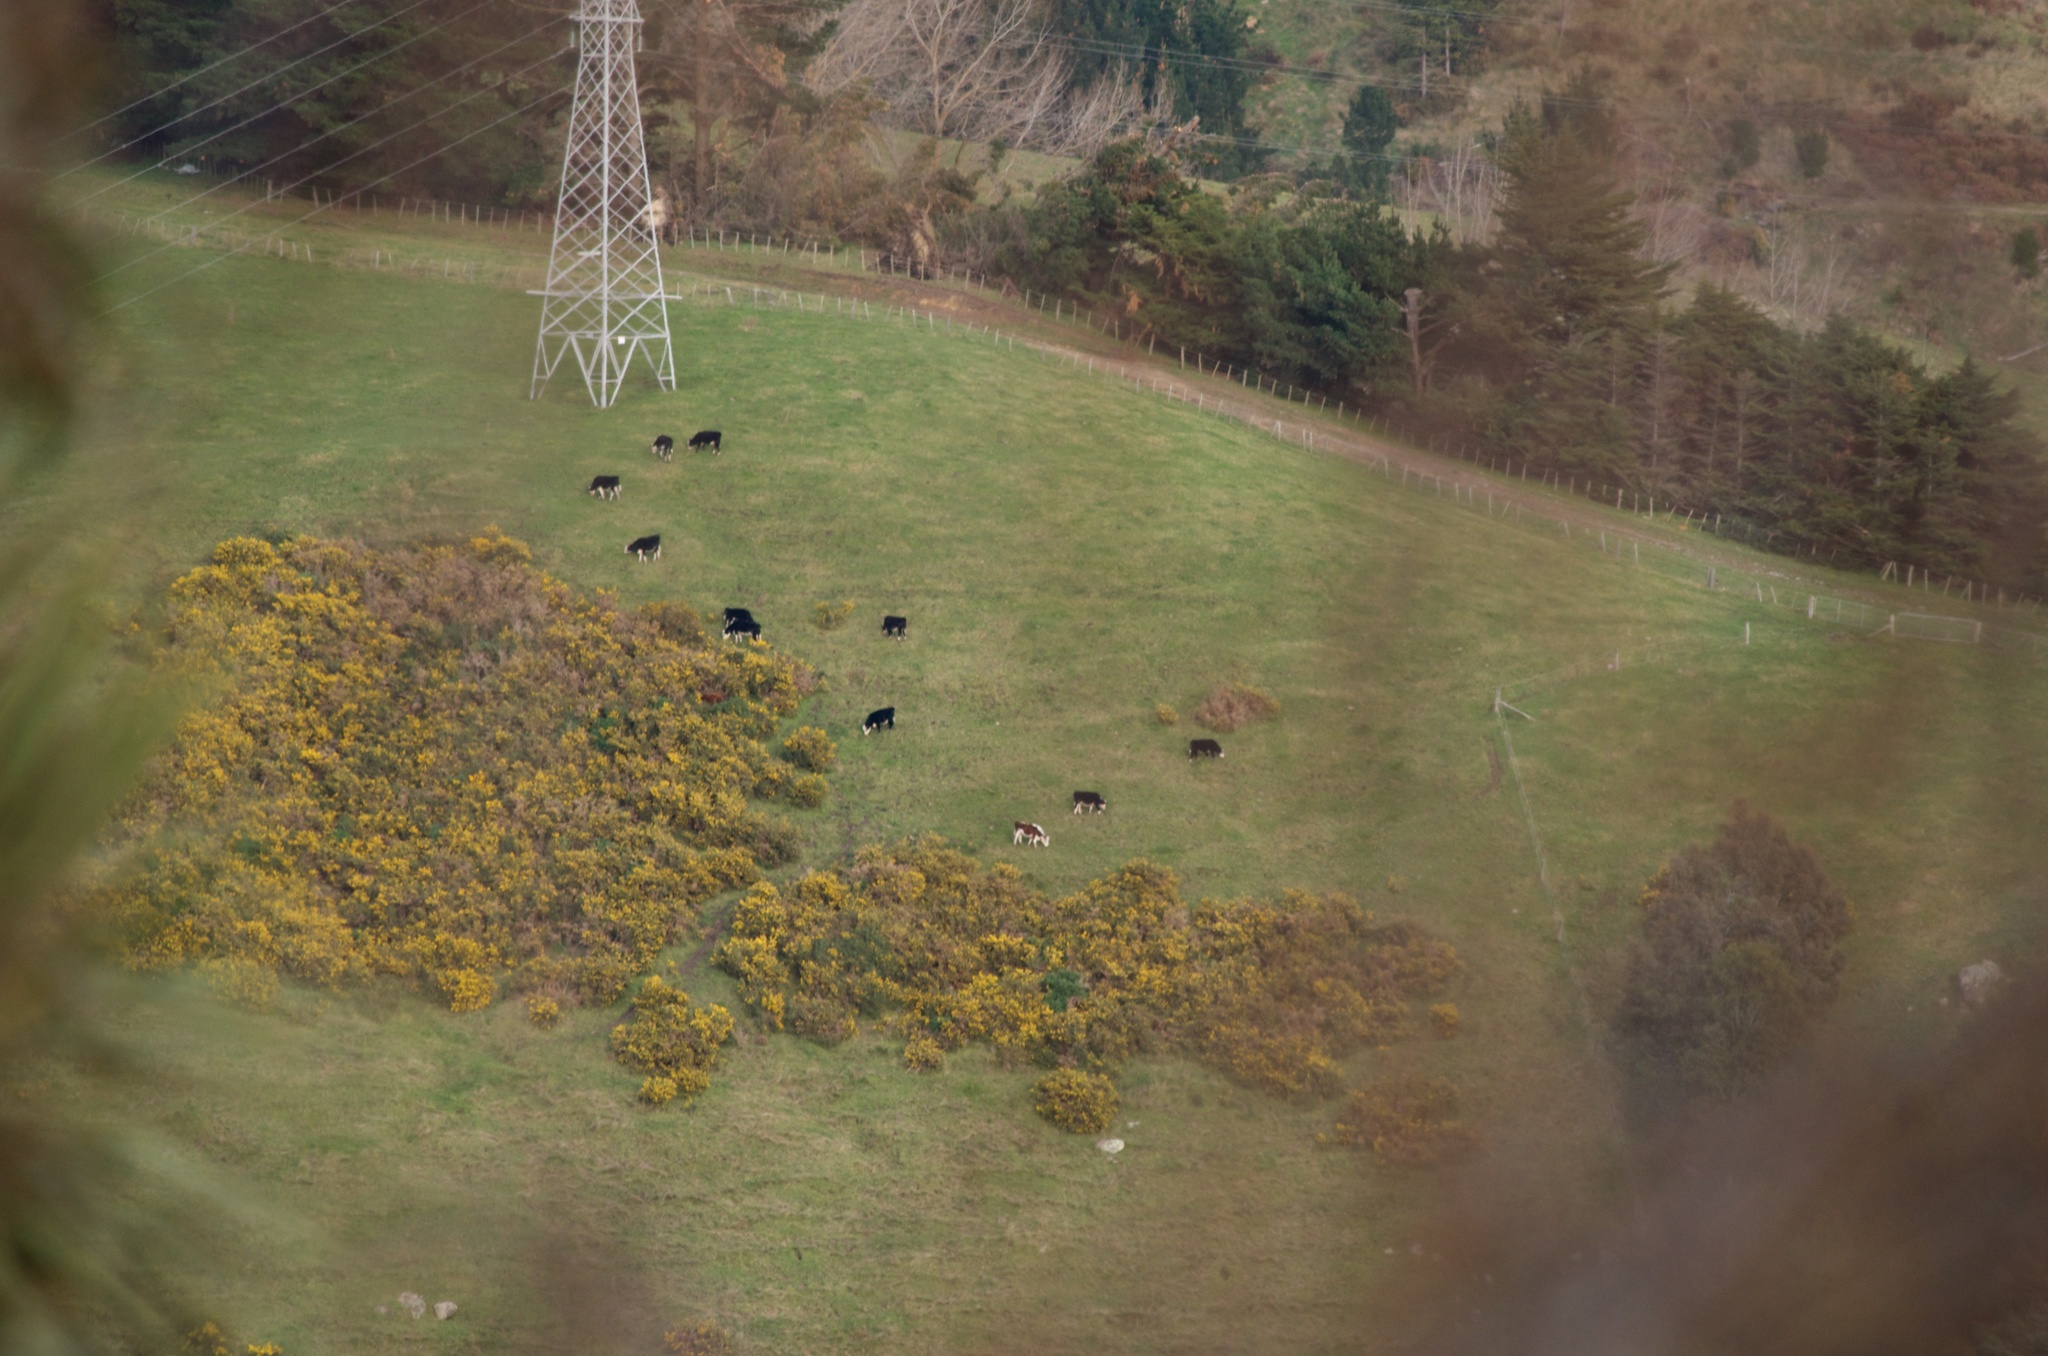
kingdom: Plantae
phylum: Tracheophyta
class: Magnoliopsida
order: Fabales
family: Fabaceae
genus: Ulex
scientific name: Ulex europaeus
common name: Common gorse
